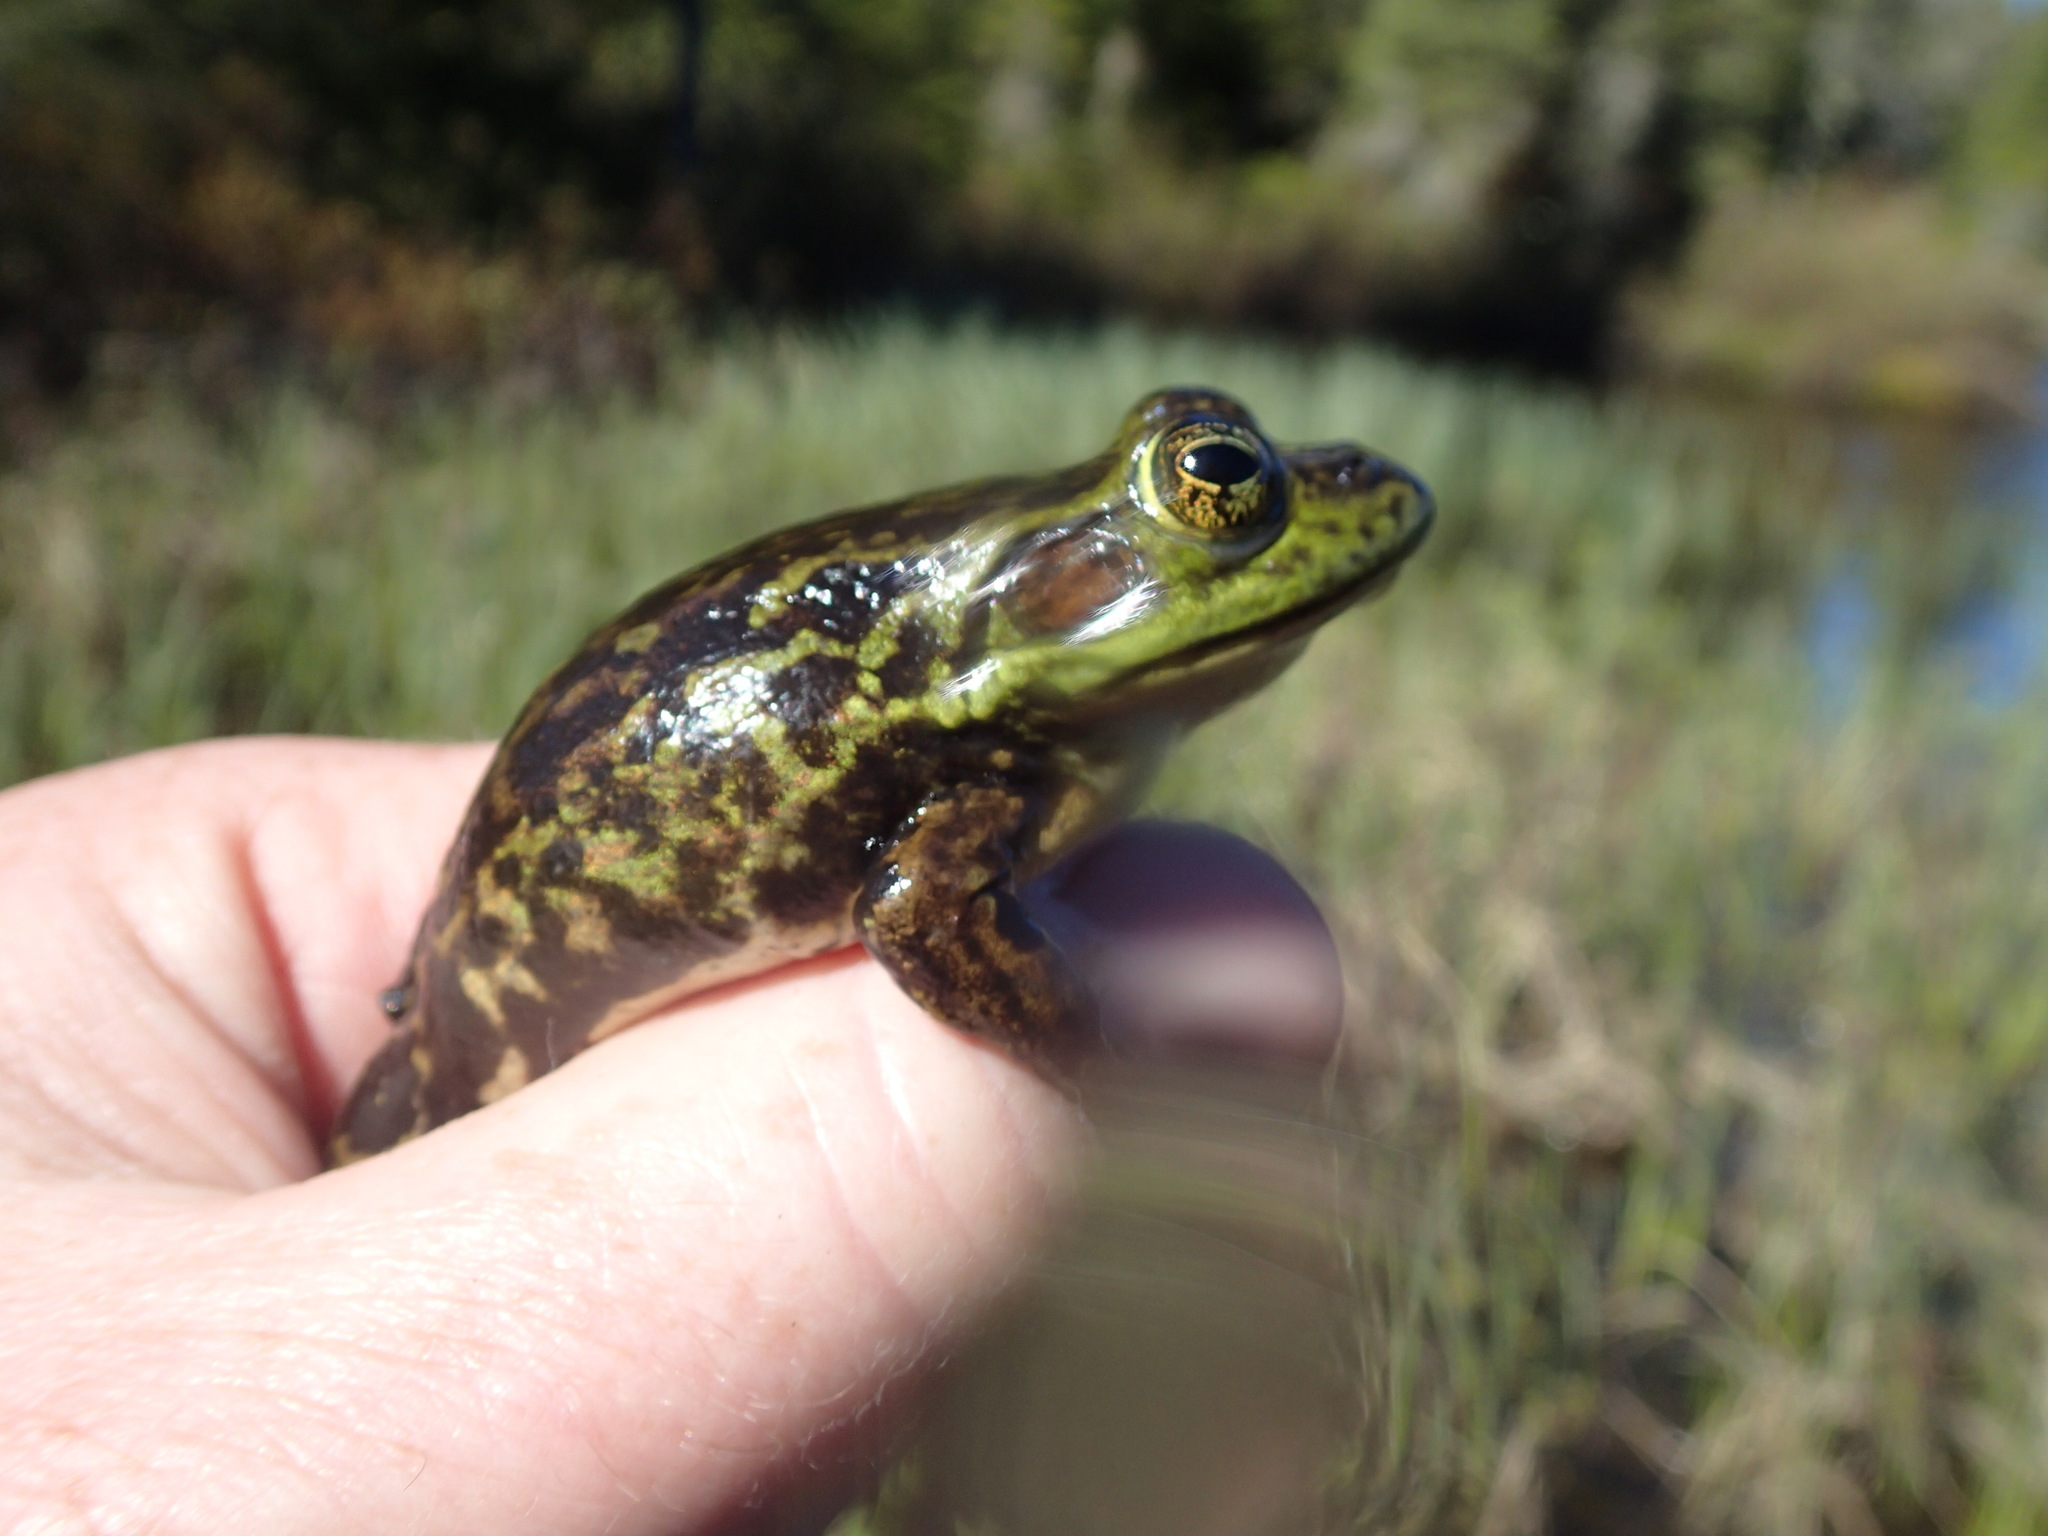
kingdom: Animalia
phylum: Chordata
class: Amphibia
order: Anura
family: Ranidae
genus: Lithobates
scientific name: Lithobates septentrionalis
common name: Mink frog
